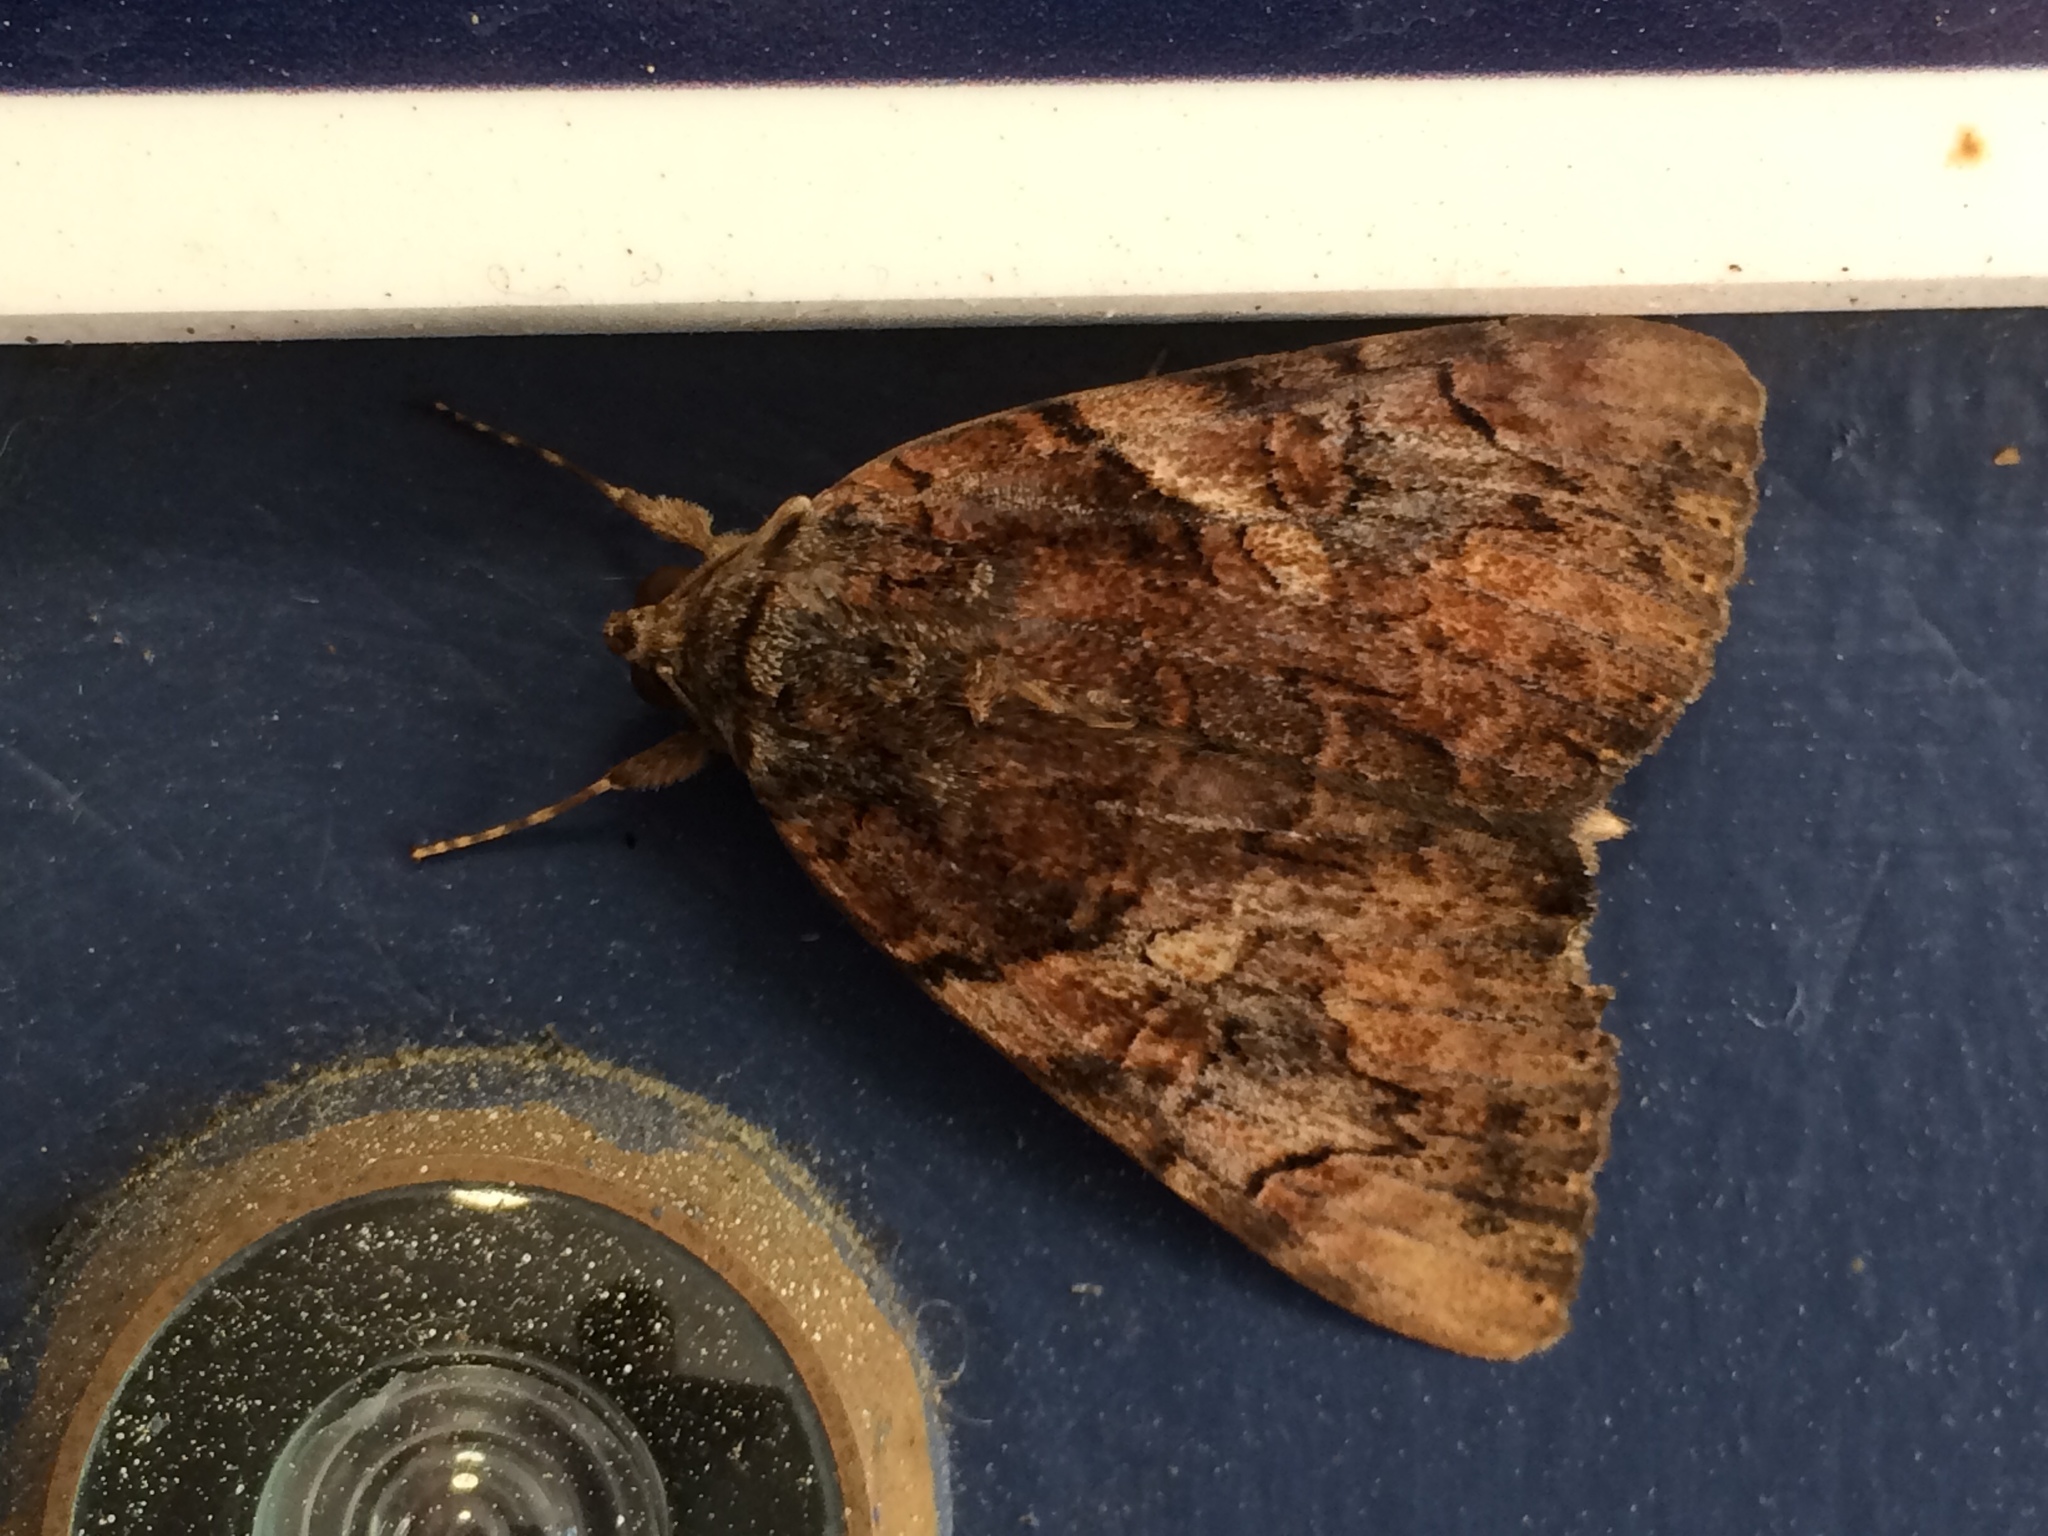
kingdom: Animalia
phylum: Arthropoda
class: Insecta
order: Lepidoptera
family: Erebidae
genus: Catocala
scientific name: Catocala muliercula
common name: The little wife underwing
